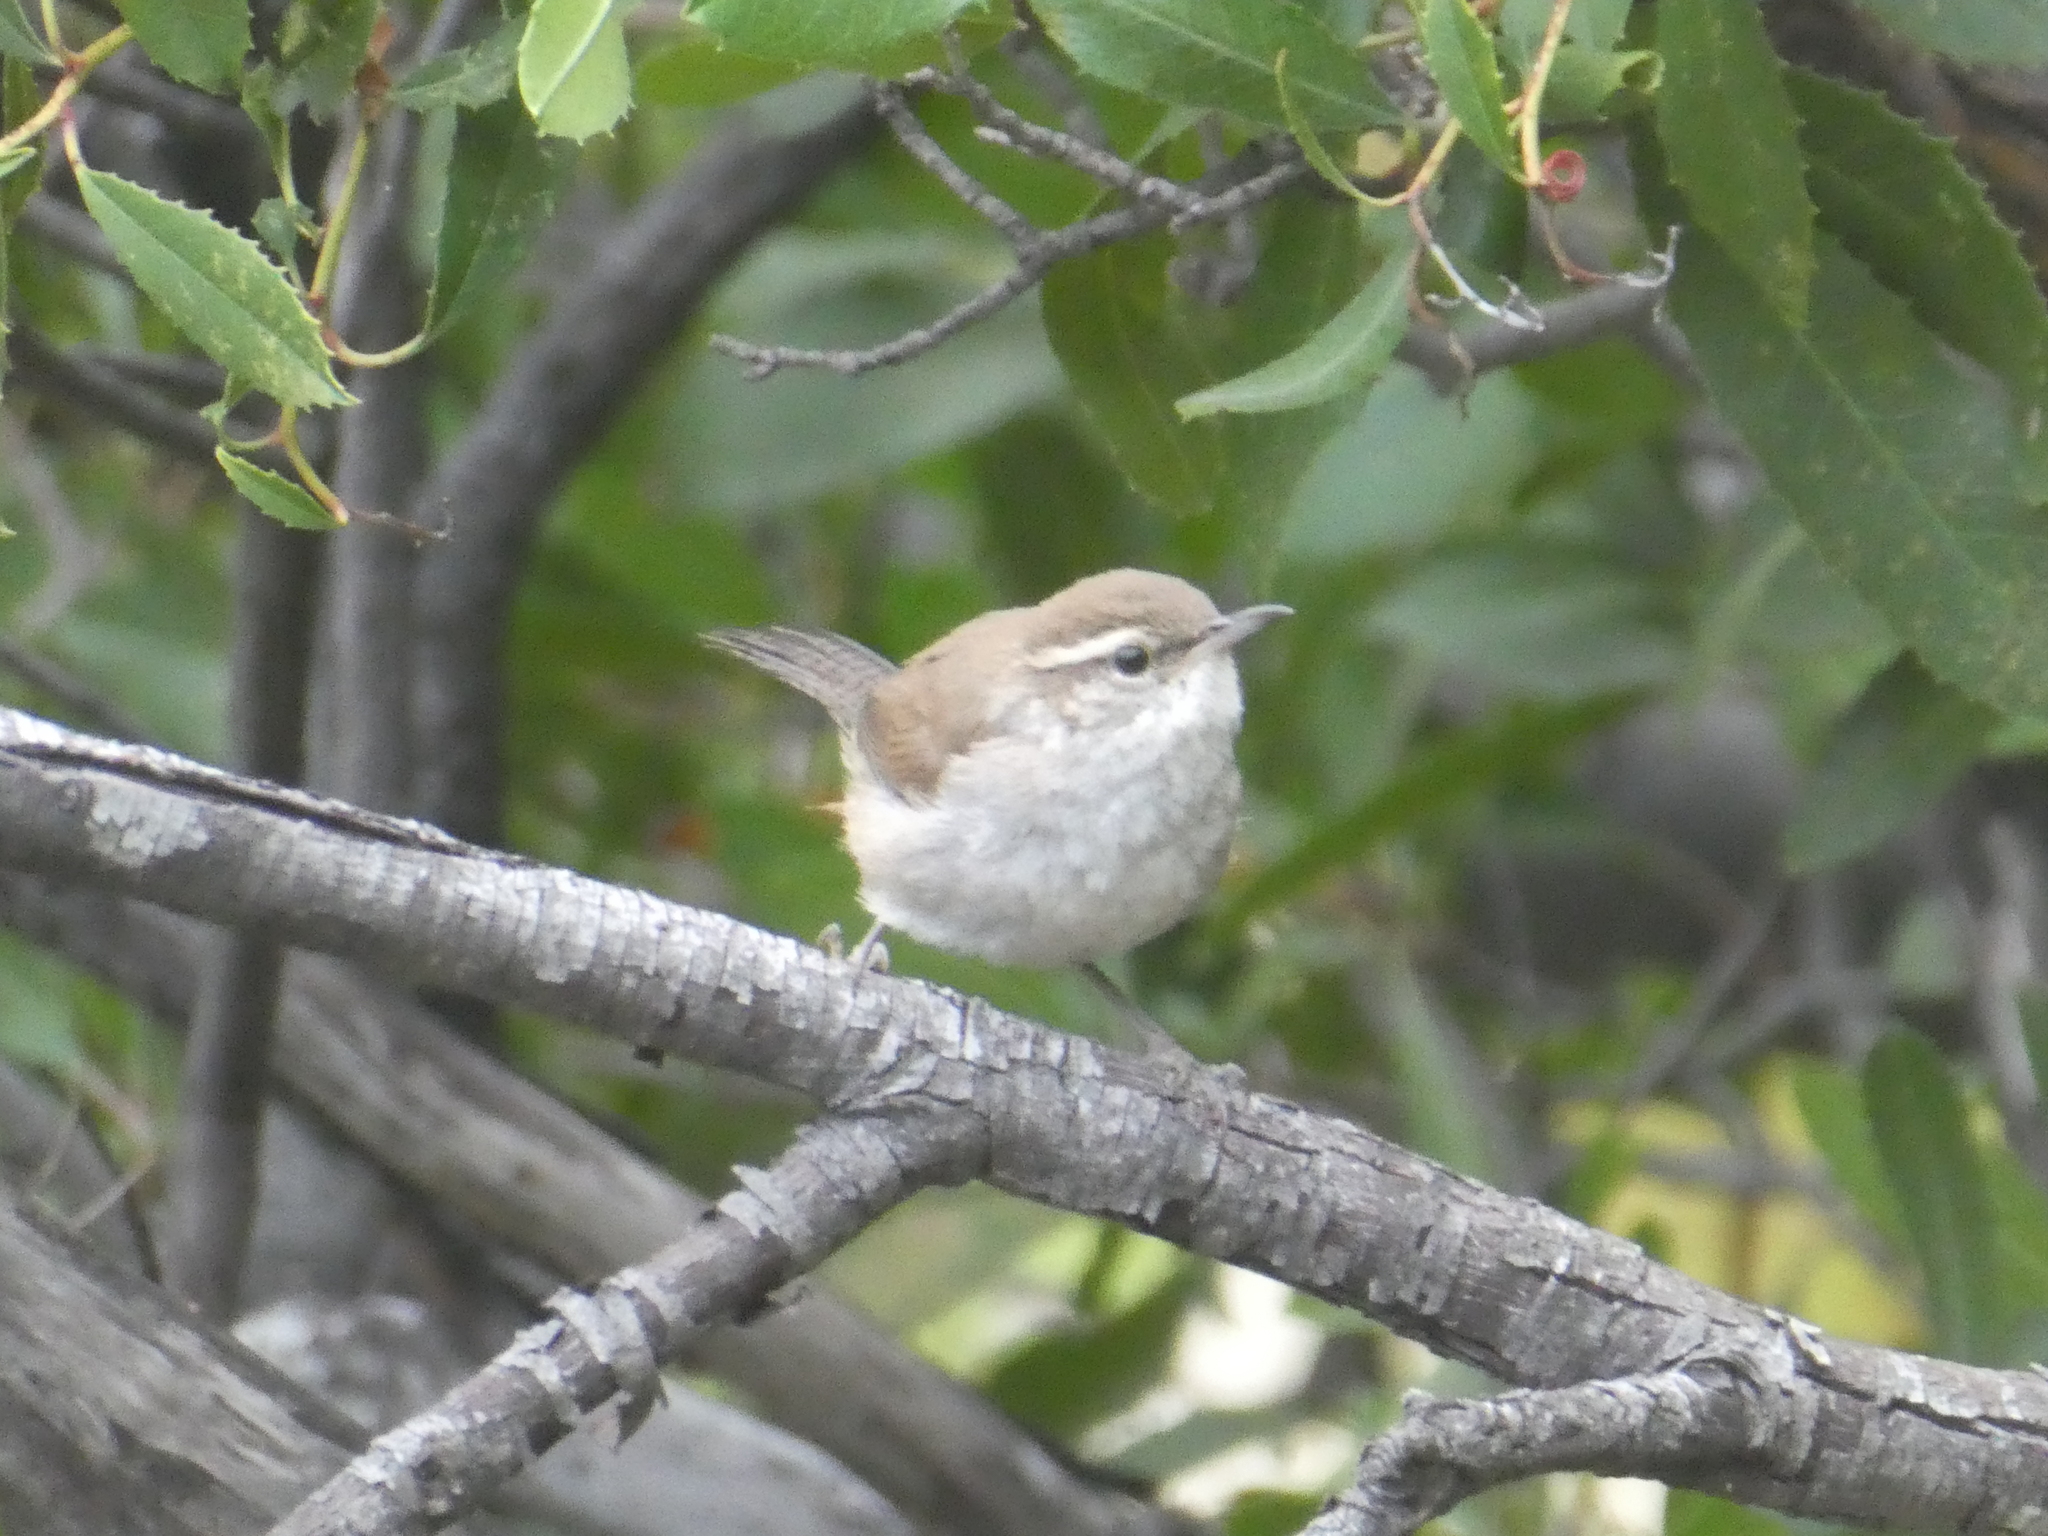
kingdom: Animalia
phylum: Chordata
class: Aves
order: Passeriformes
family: Troglodytidae
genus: Thryomanes
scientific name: Thryomanes bewickii
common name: Bewick's wren
